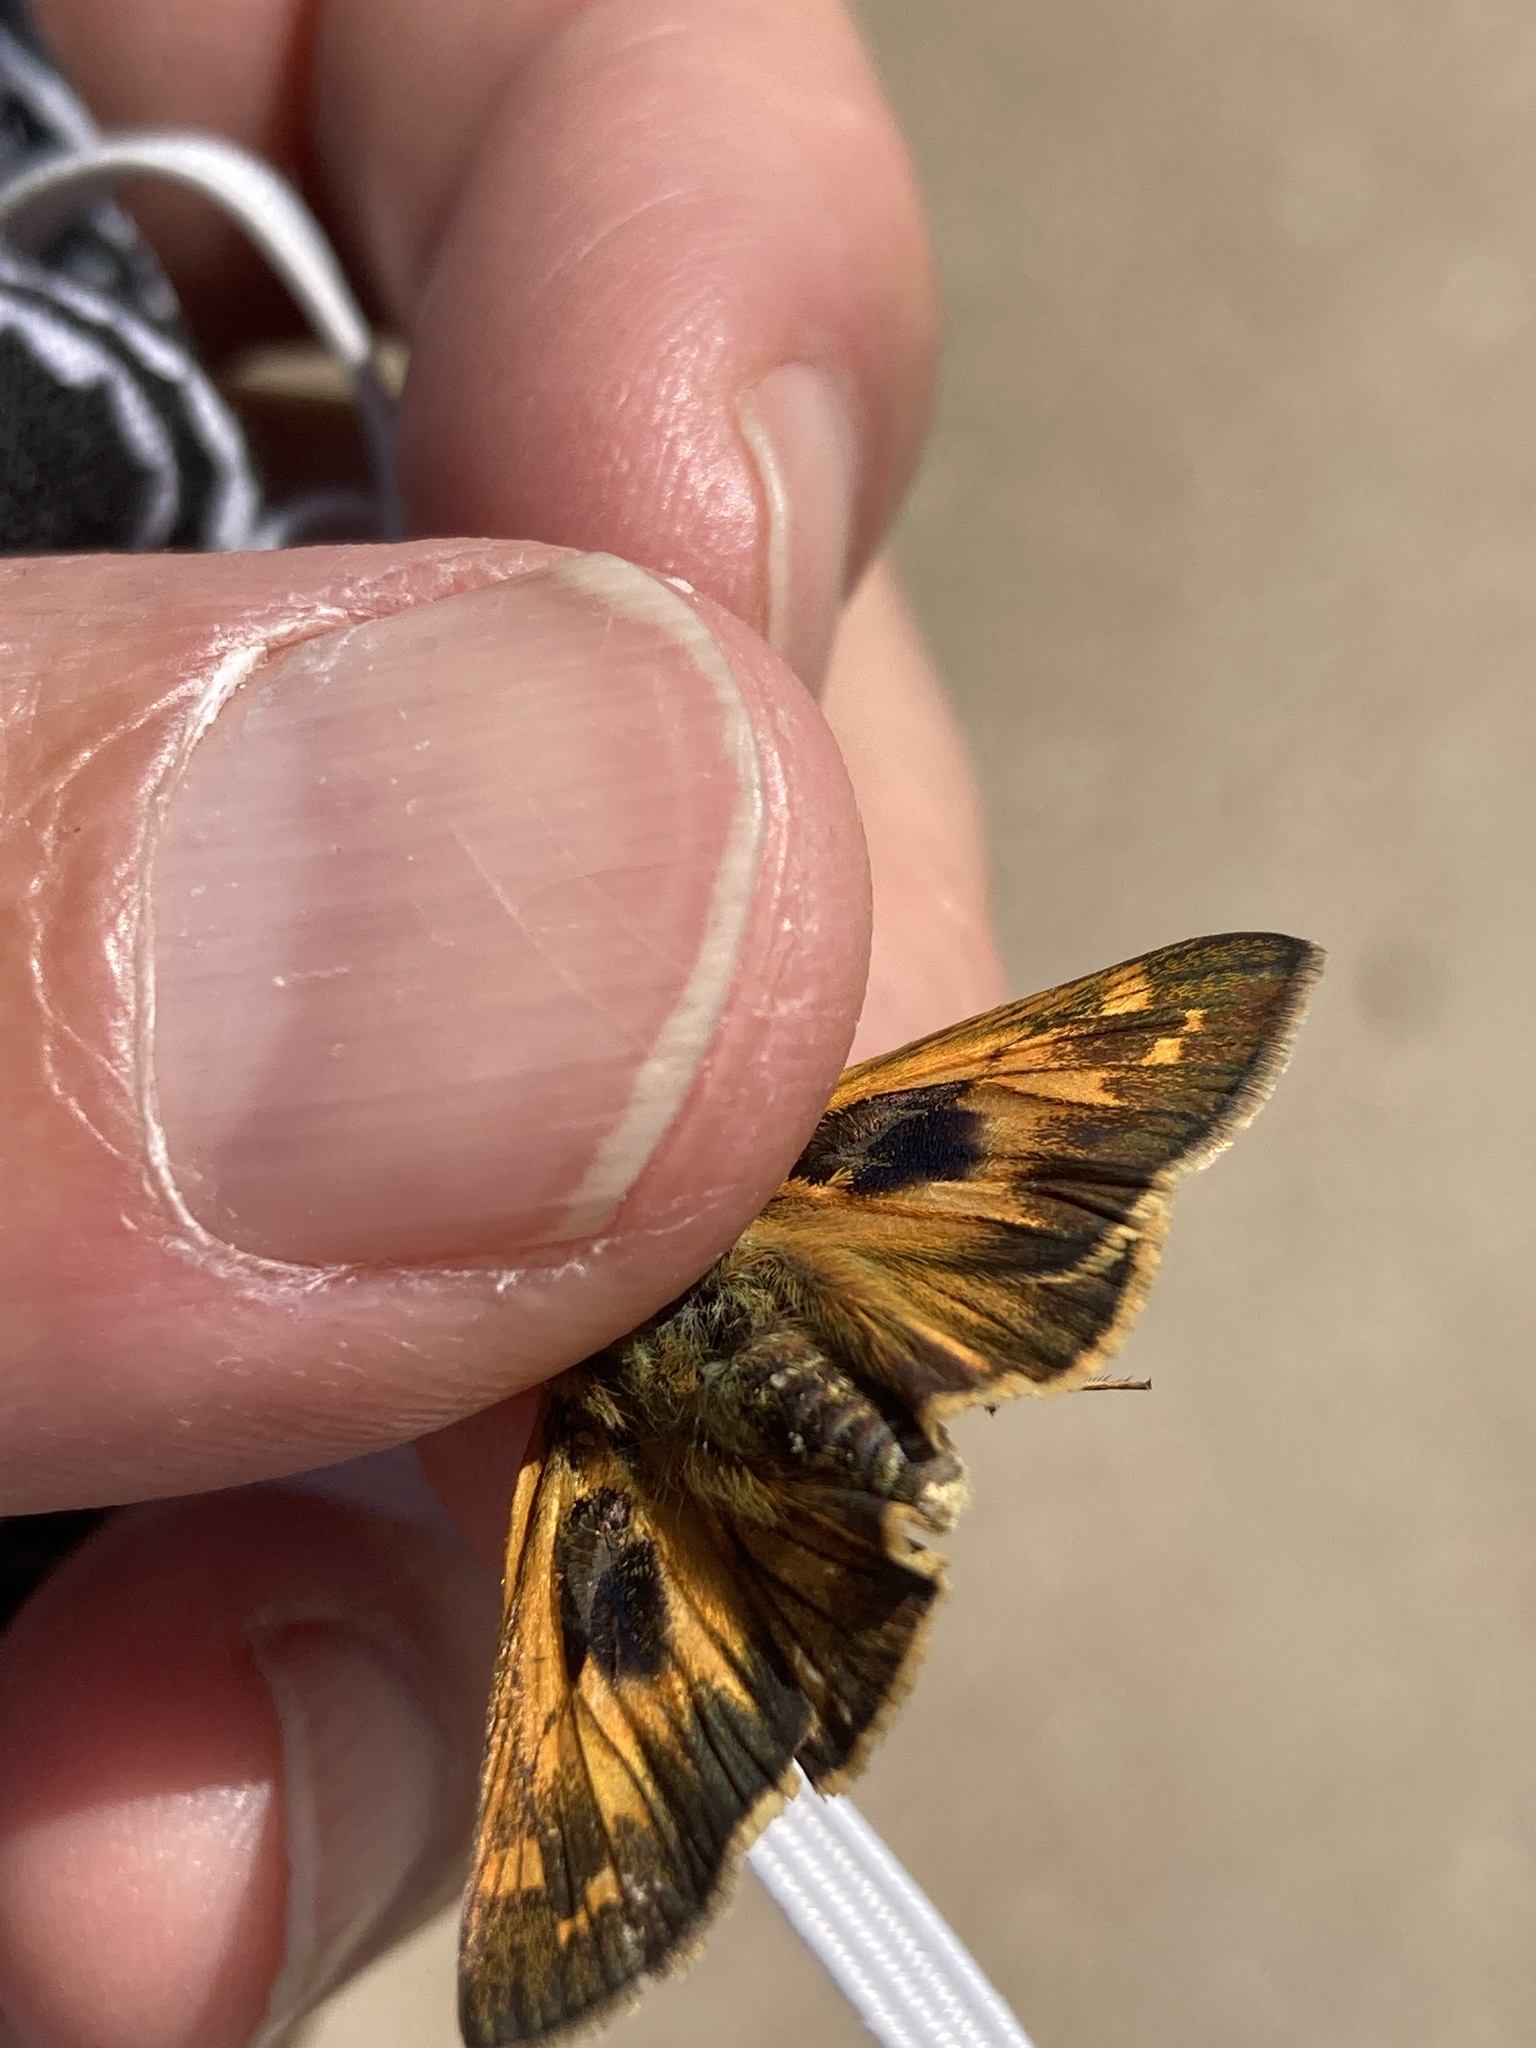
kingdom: Animalia
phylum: Arthropoda
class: Insecta
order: Lepidoptera
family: Hesperiidae
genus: Atalopedes
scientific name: Atalopedes
